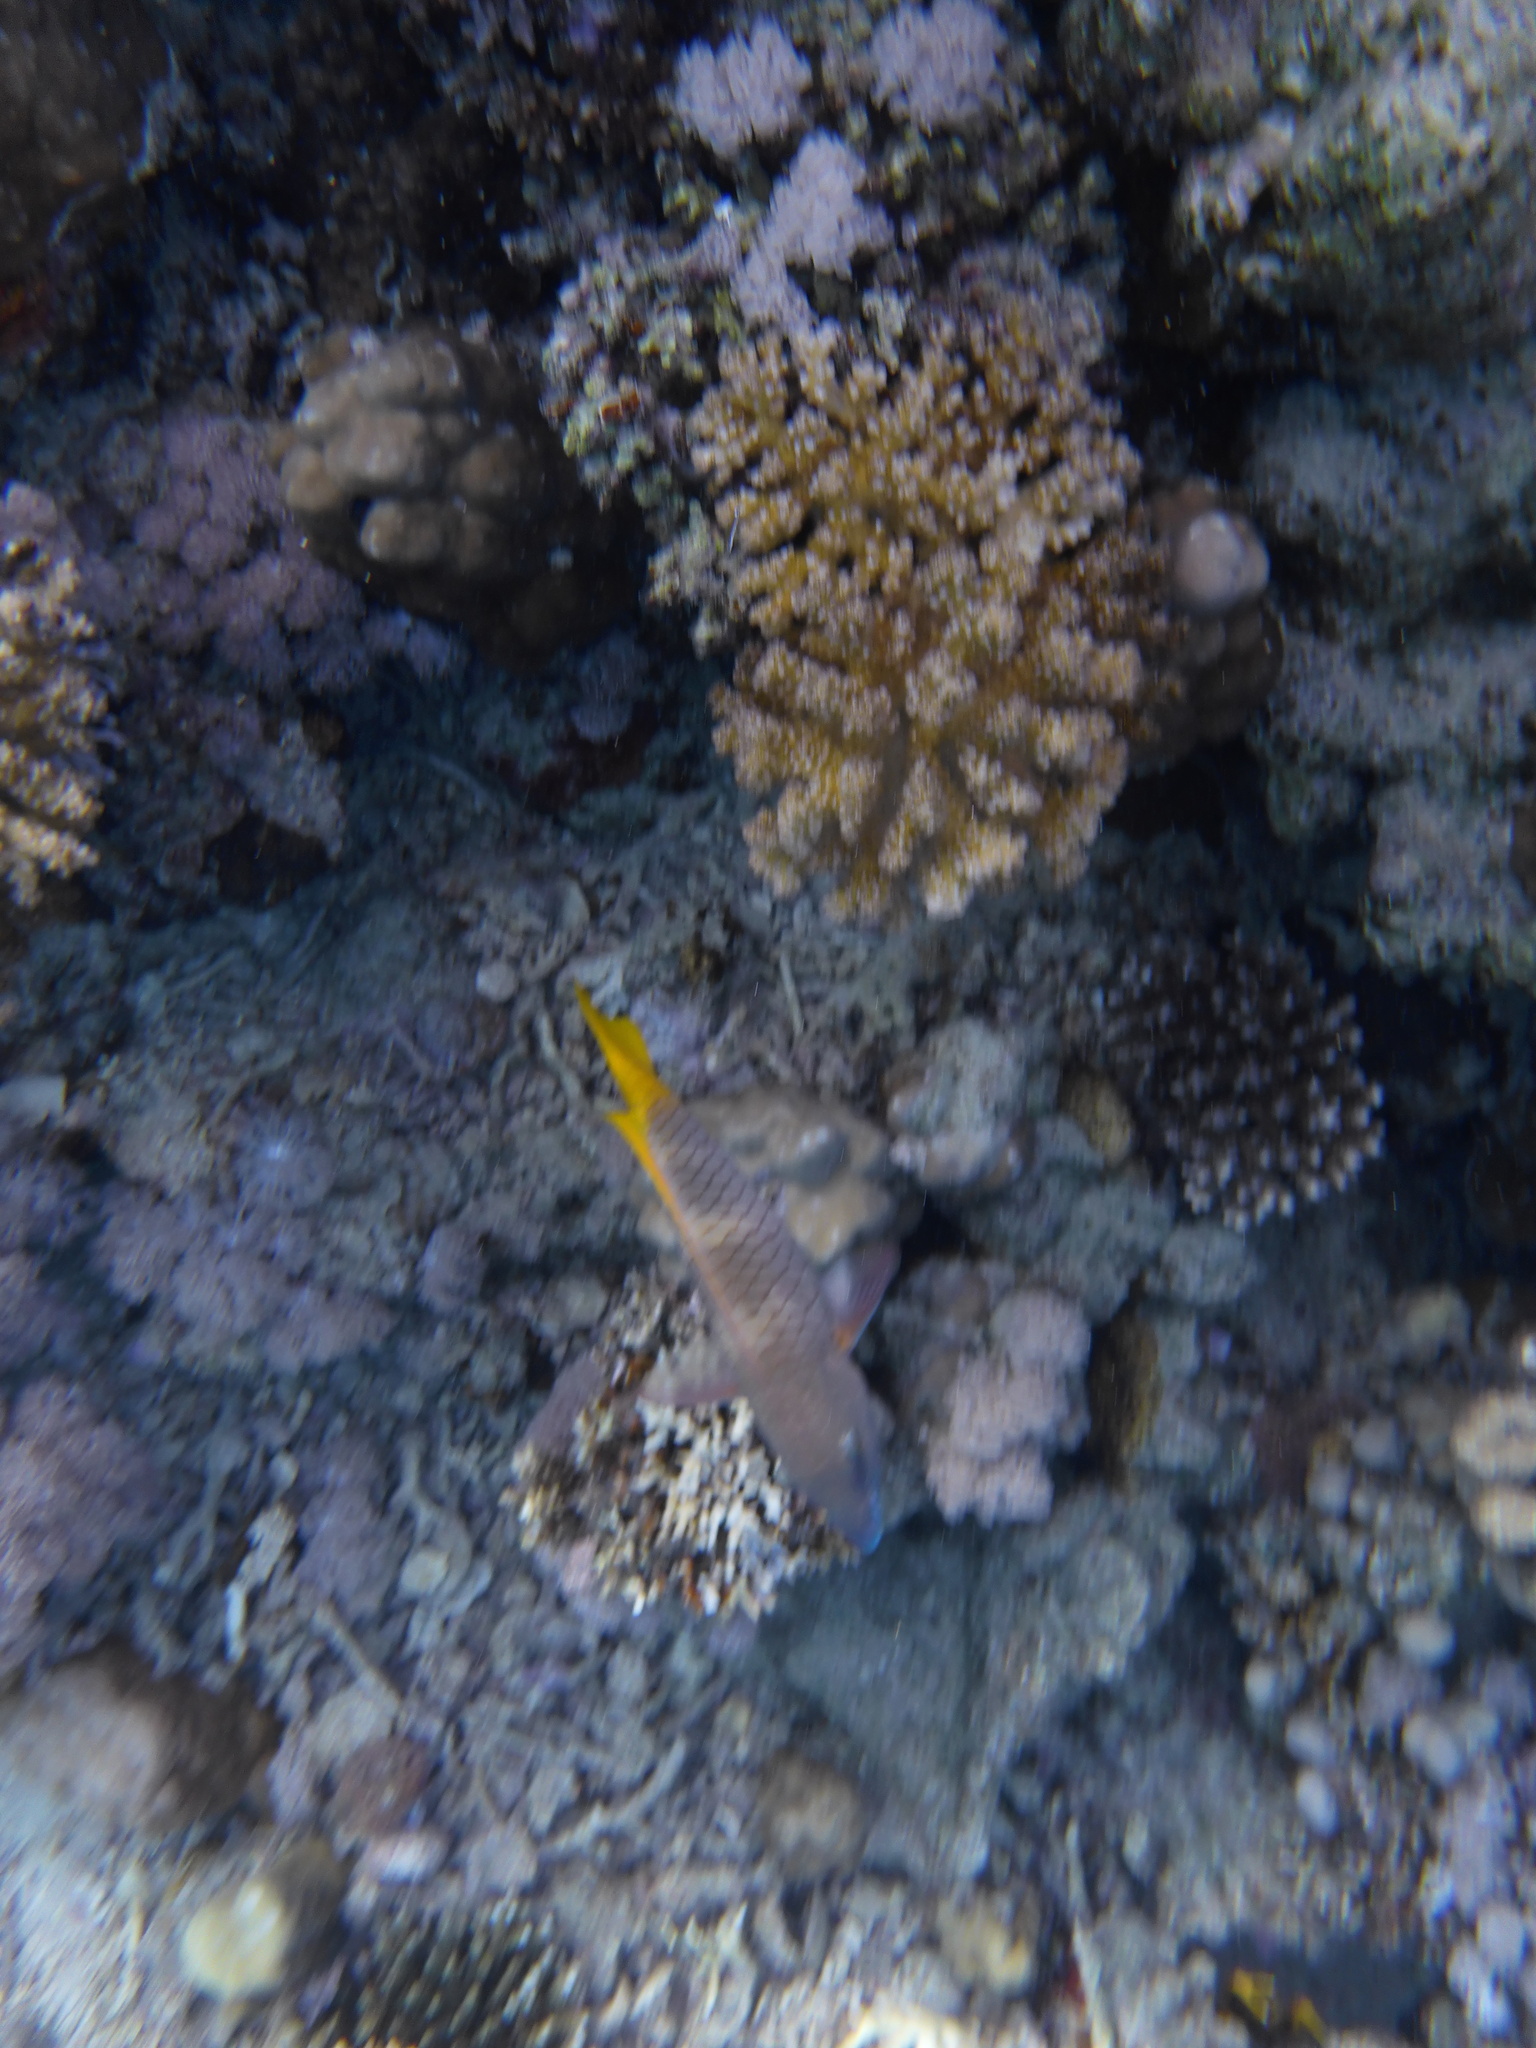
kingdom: Animalia
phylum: Chordata
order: Perciformes
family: Scaridae
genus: Scarus
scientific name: Scarus ferrugineus
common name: Rusty parrotfish
